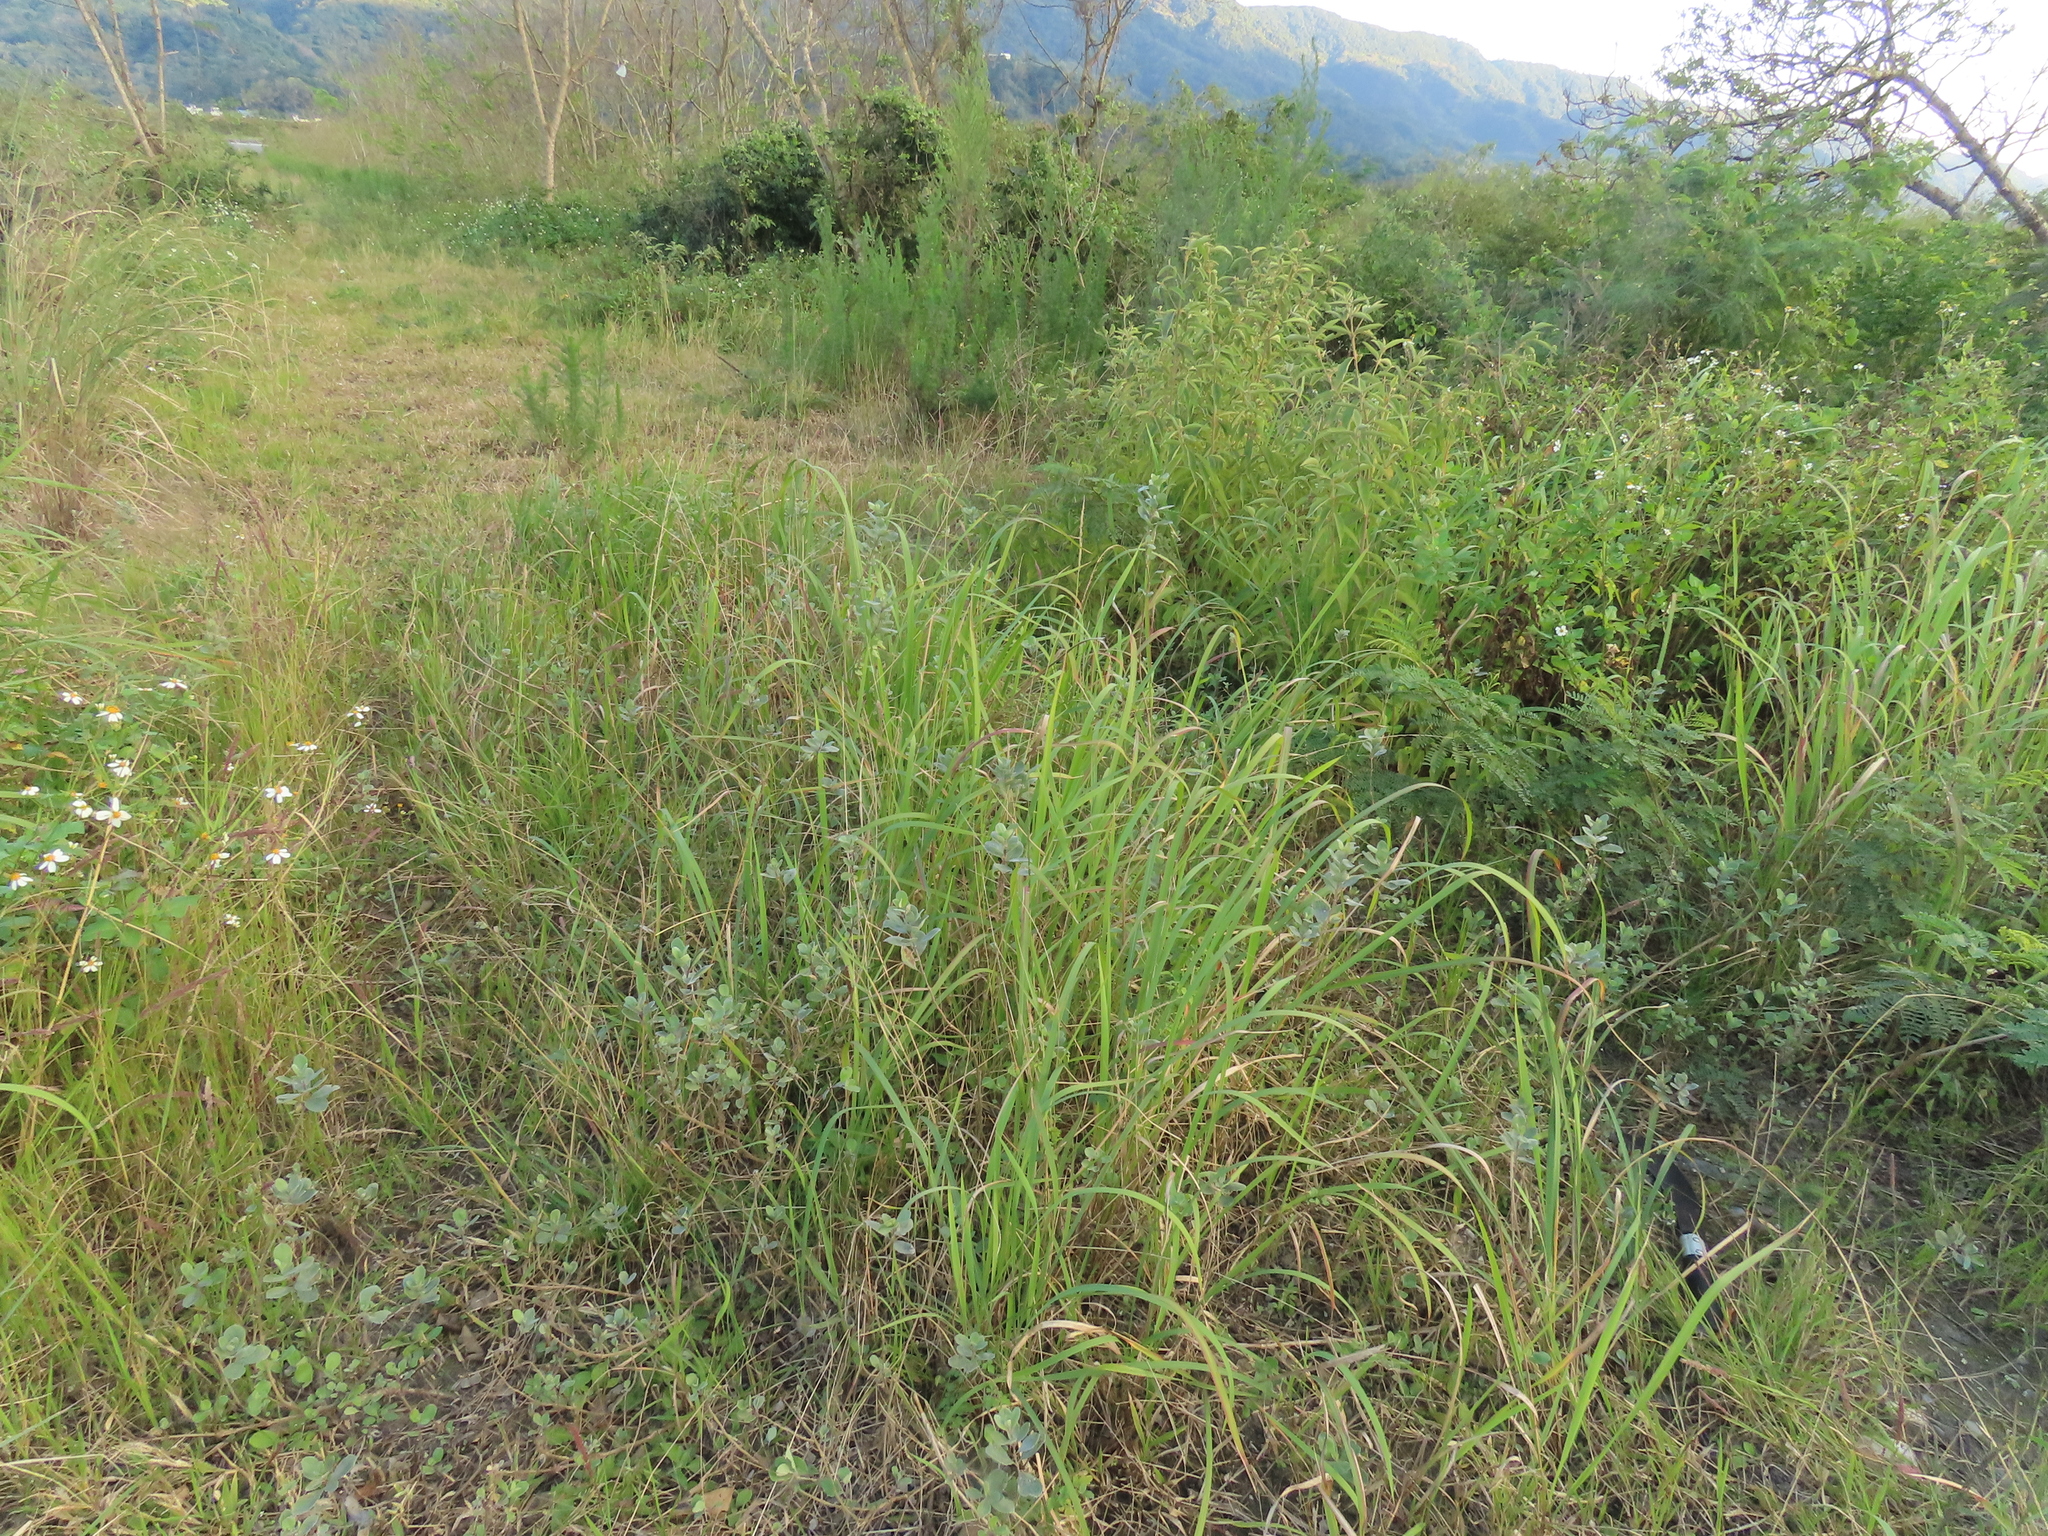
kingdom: Plantae
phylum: Tracheophyta
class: Magnoliopsida
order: Lamiales
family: Lamiaceae
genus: Vitex
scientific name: Vitex rotundifolia
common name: Beach vitex
